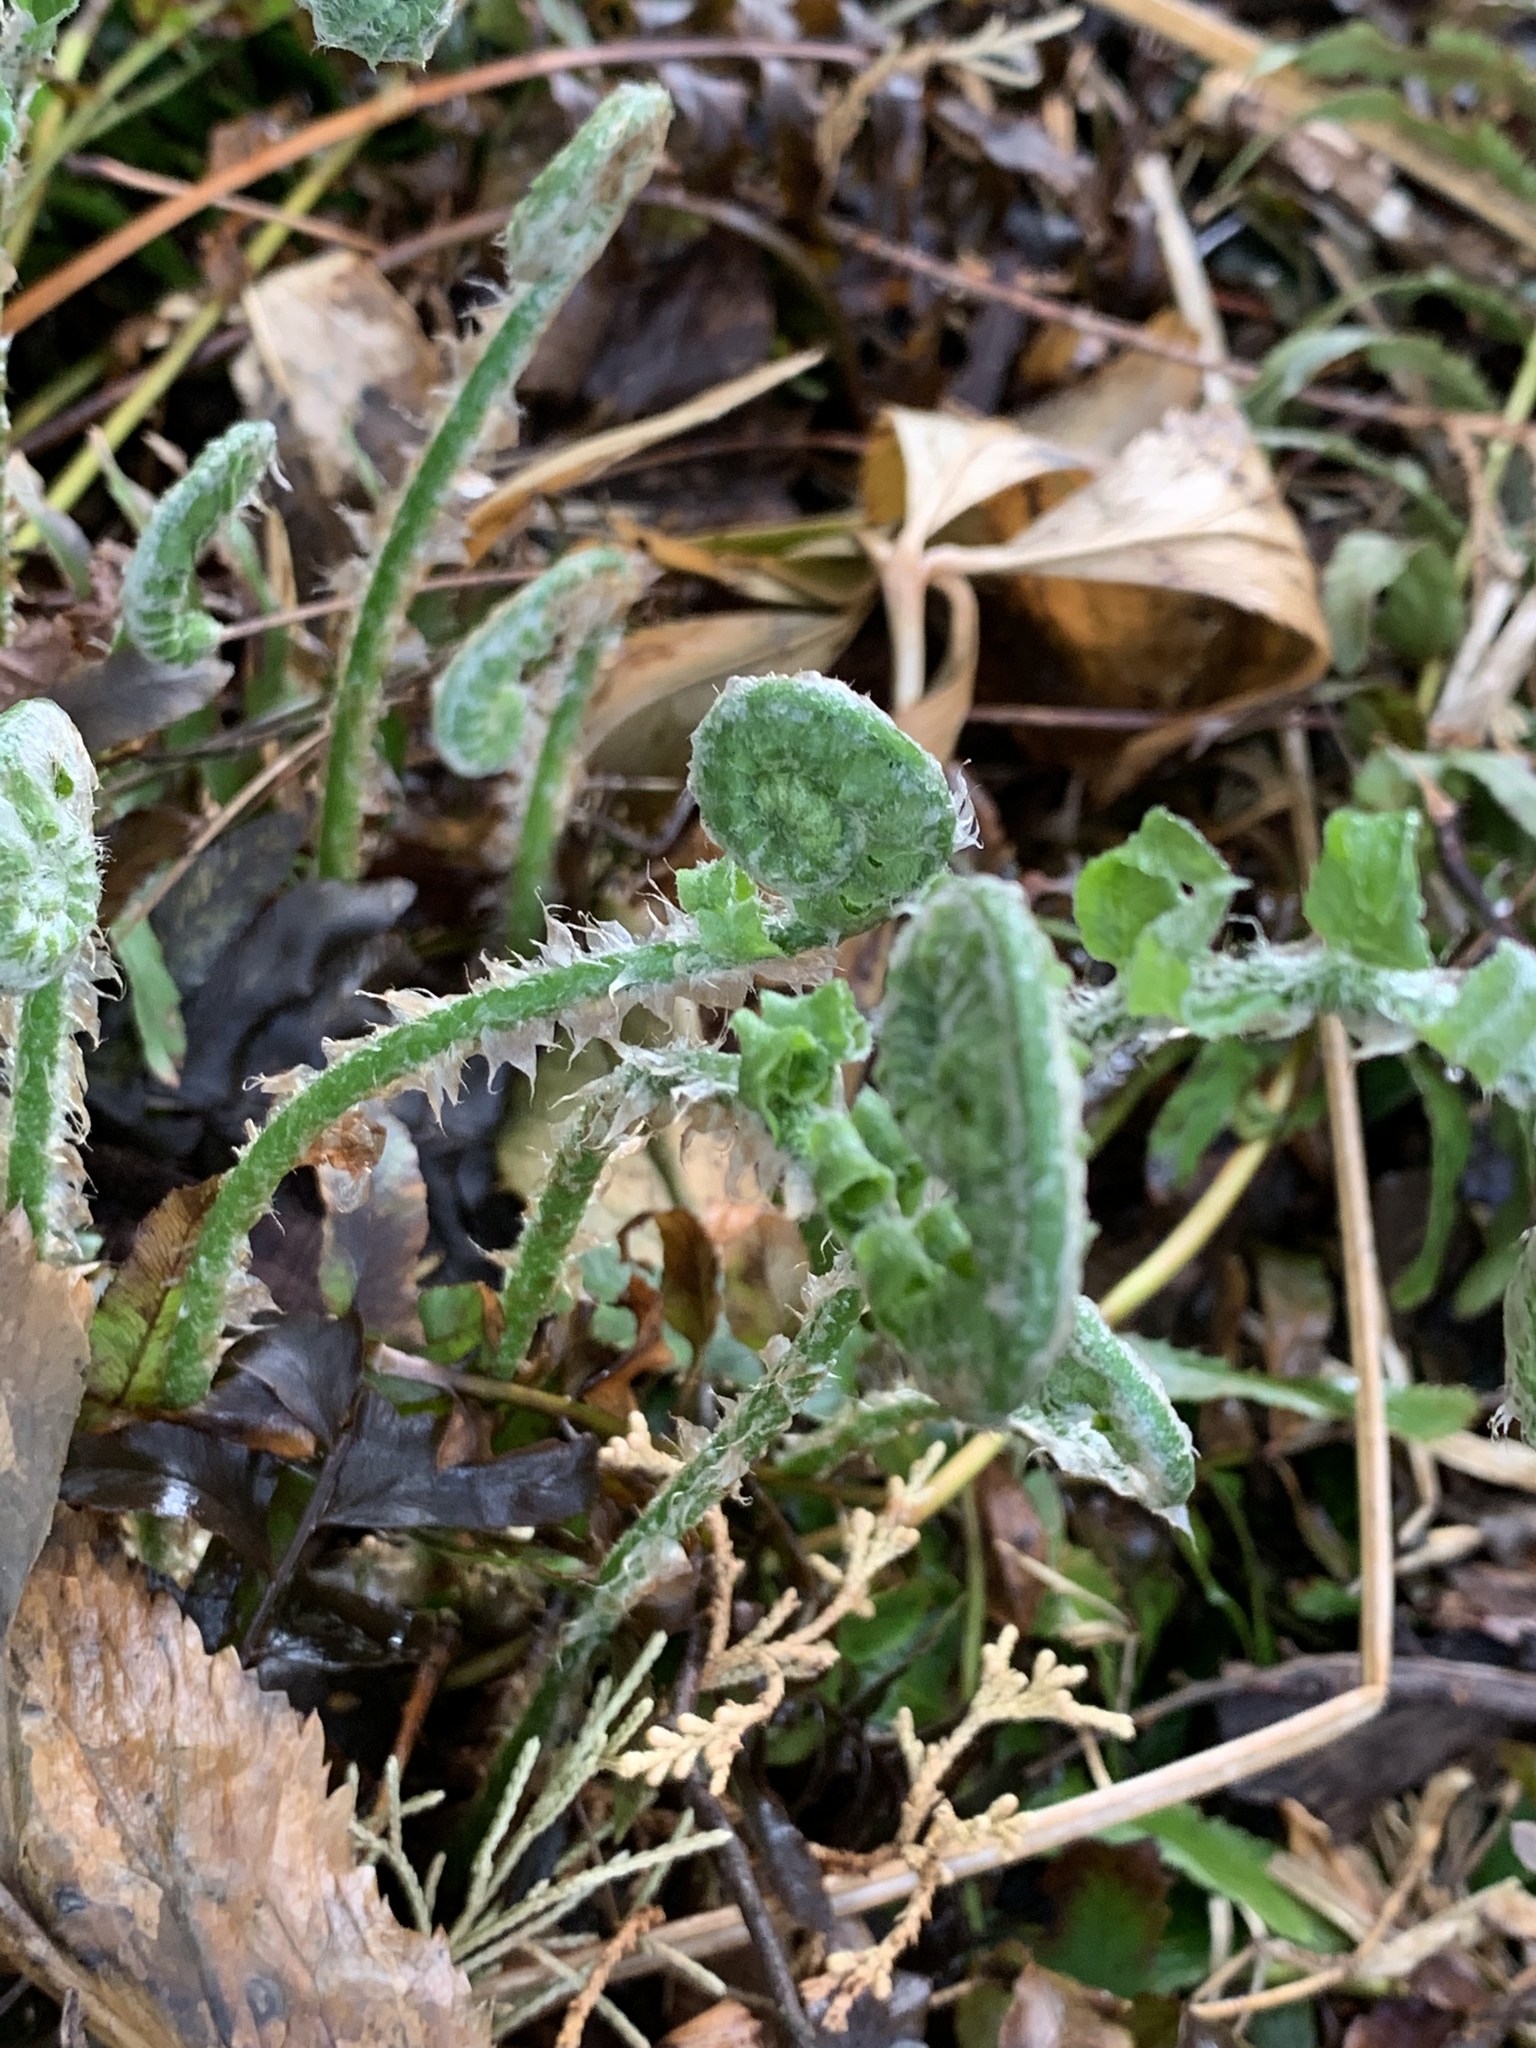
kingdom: Plantae
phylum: Tracheophyta
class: Polypodiopsida
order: Polypodiales
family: Dryopteridaceae
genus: Polystichum
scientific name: Polystichum acrostichoides
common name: Christmas fern
